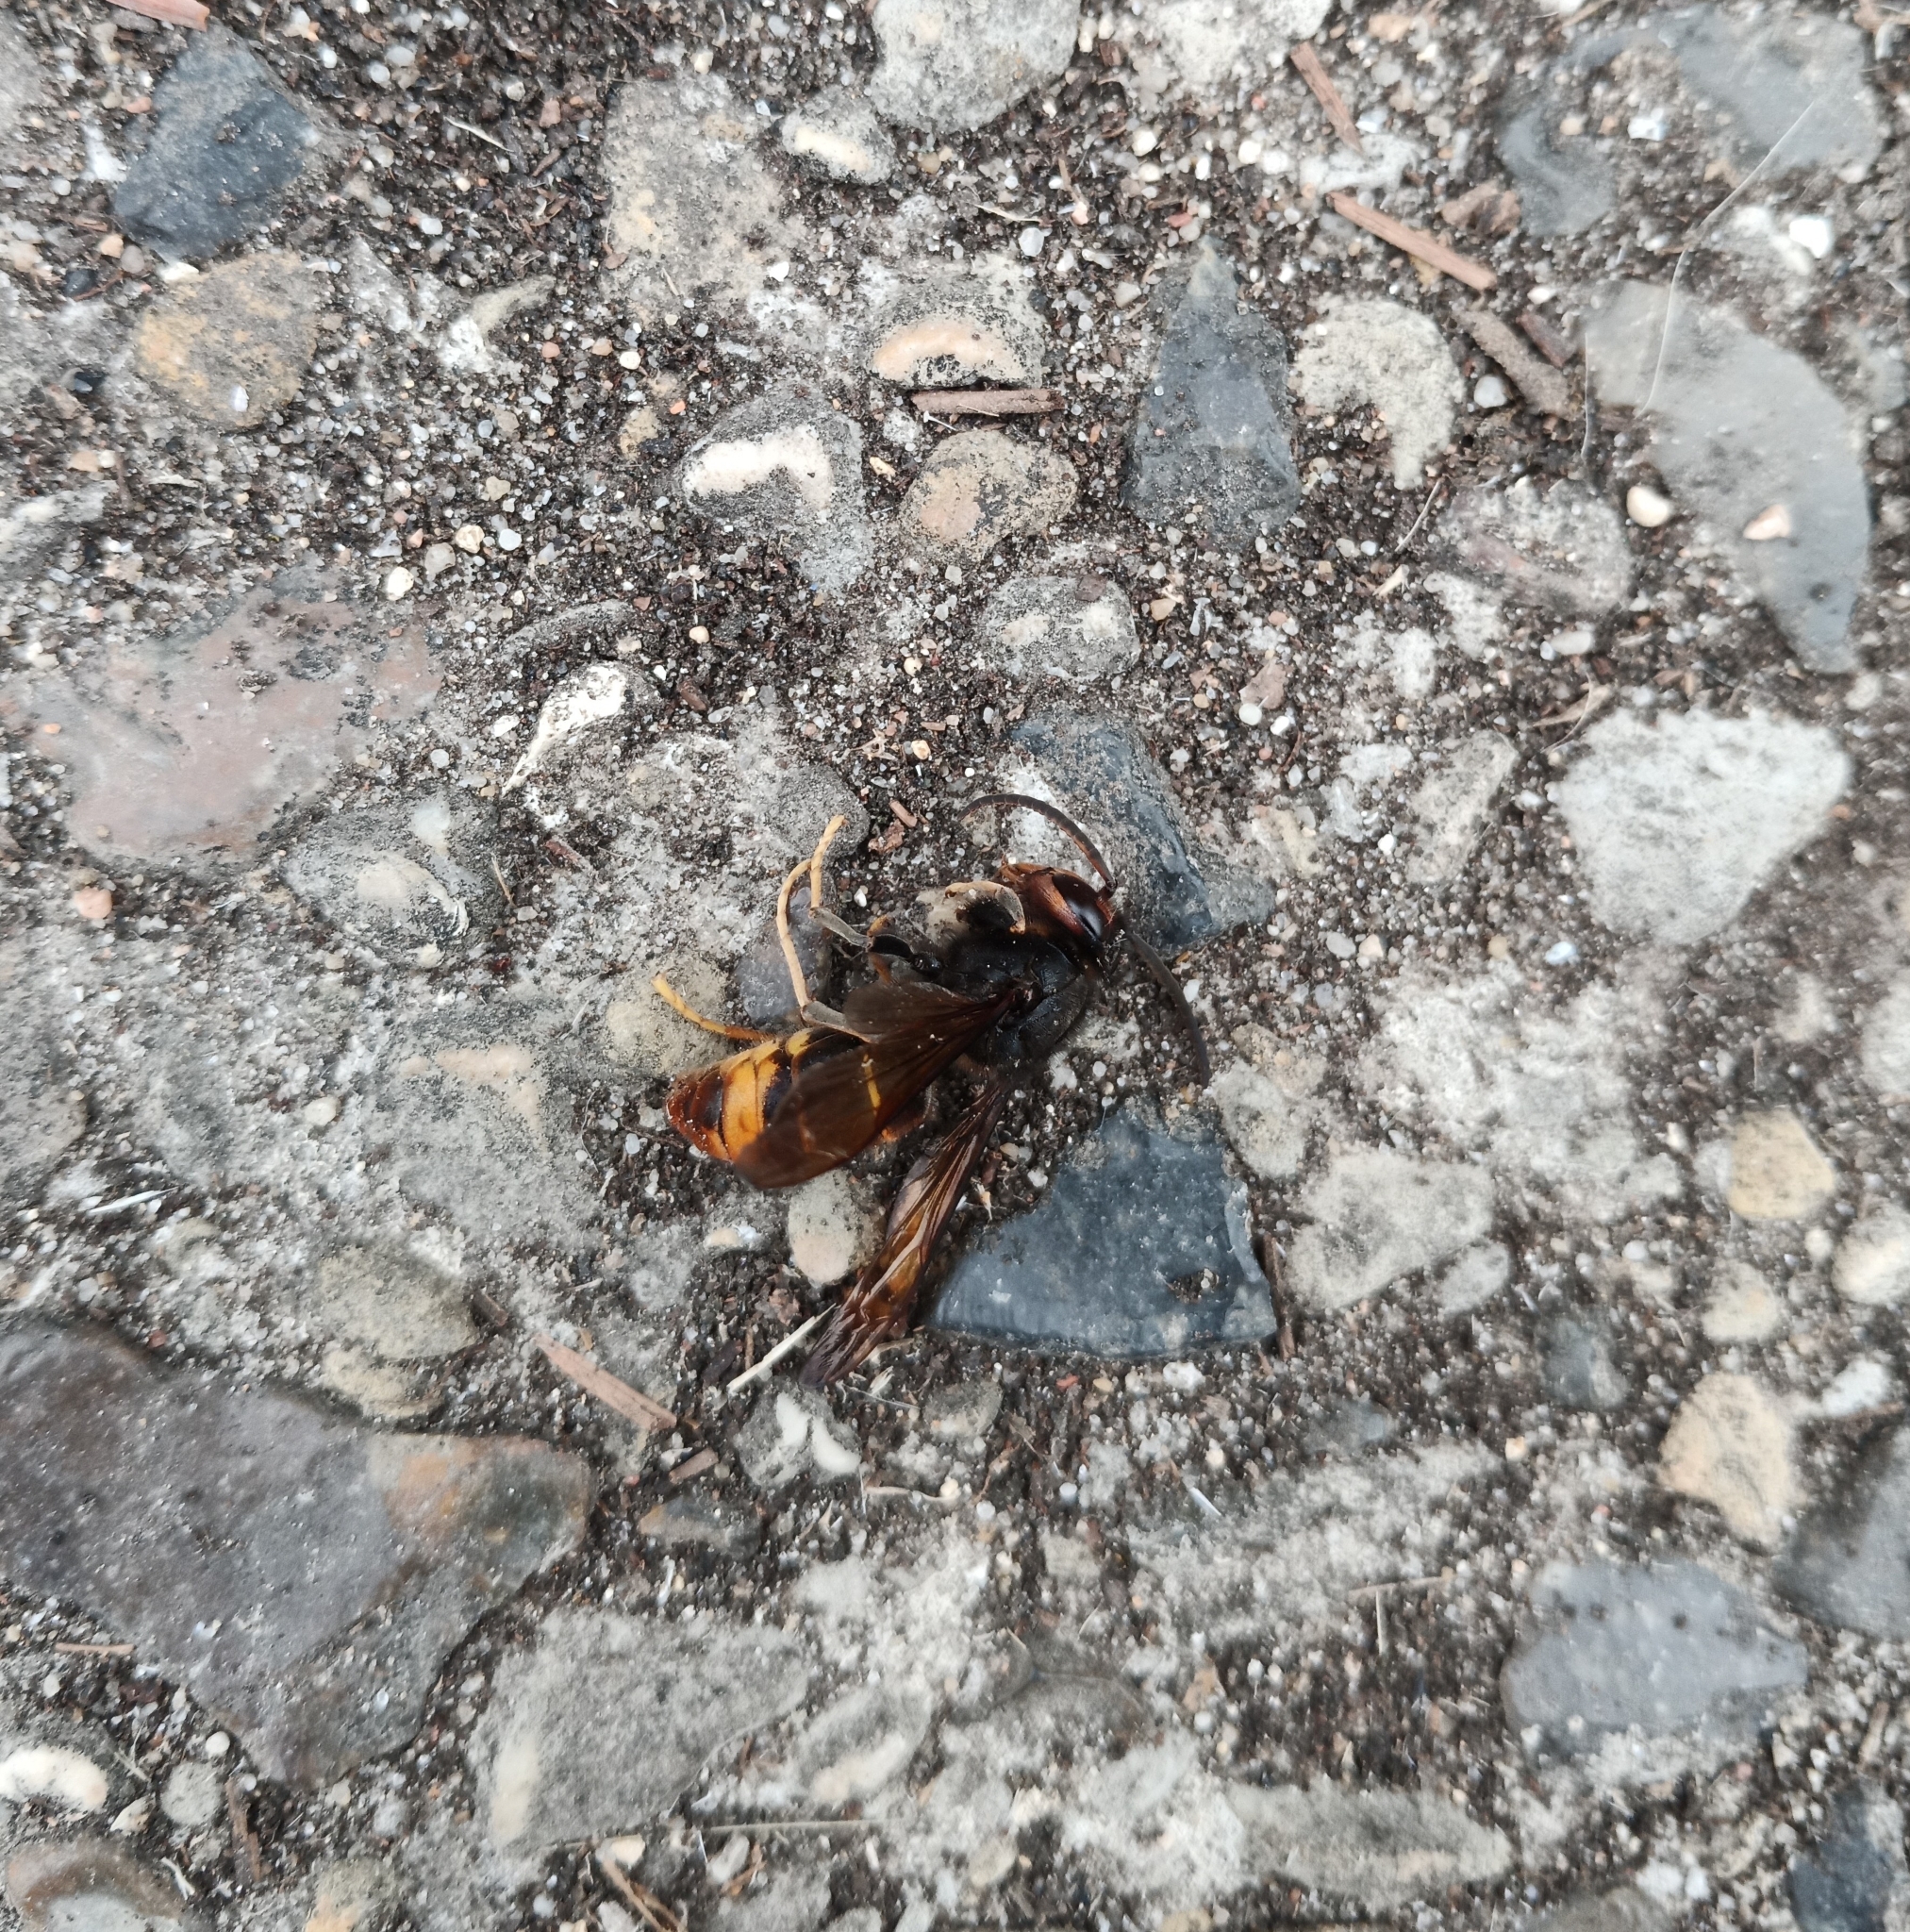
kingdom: Animalia
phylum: Arthropoda
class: Insecta
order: Hymenoptera
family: Vespidae
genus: Vespa
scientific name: Vespa velutina
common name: Asian hornet
